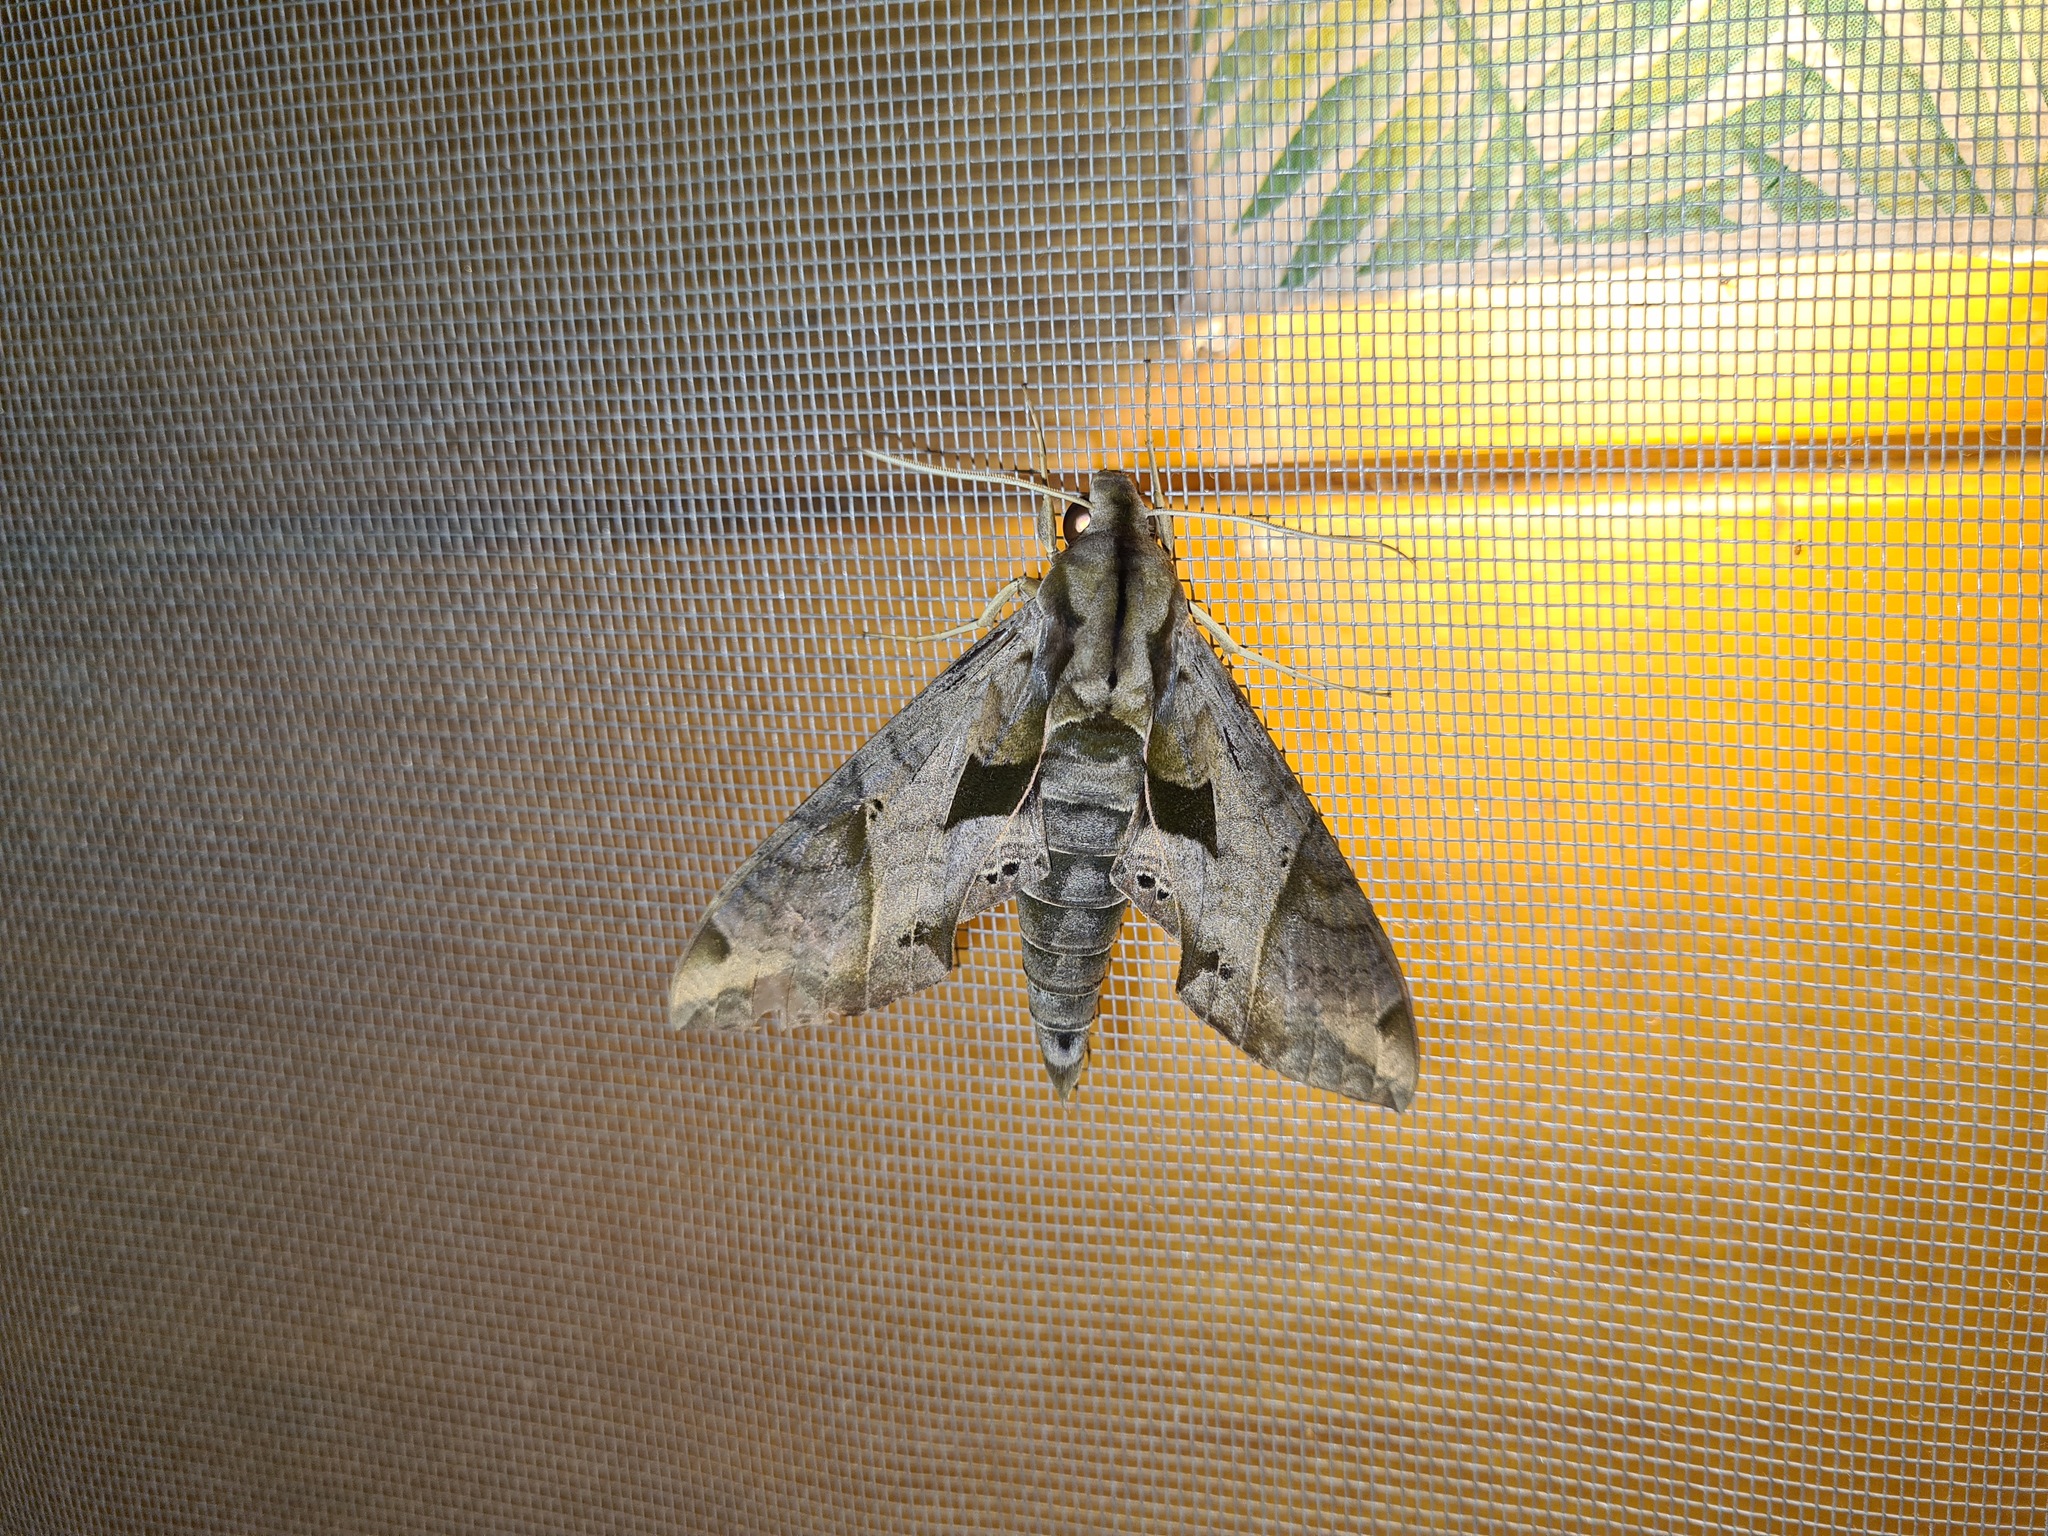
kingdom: Animalia
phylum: Arthropoda
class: Insecta
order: Lepidoptera
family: Sphingidae
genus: Eumorpha
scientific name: Eumorpha satellitia
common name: Satellite sphinx
